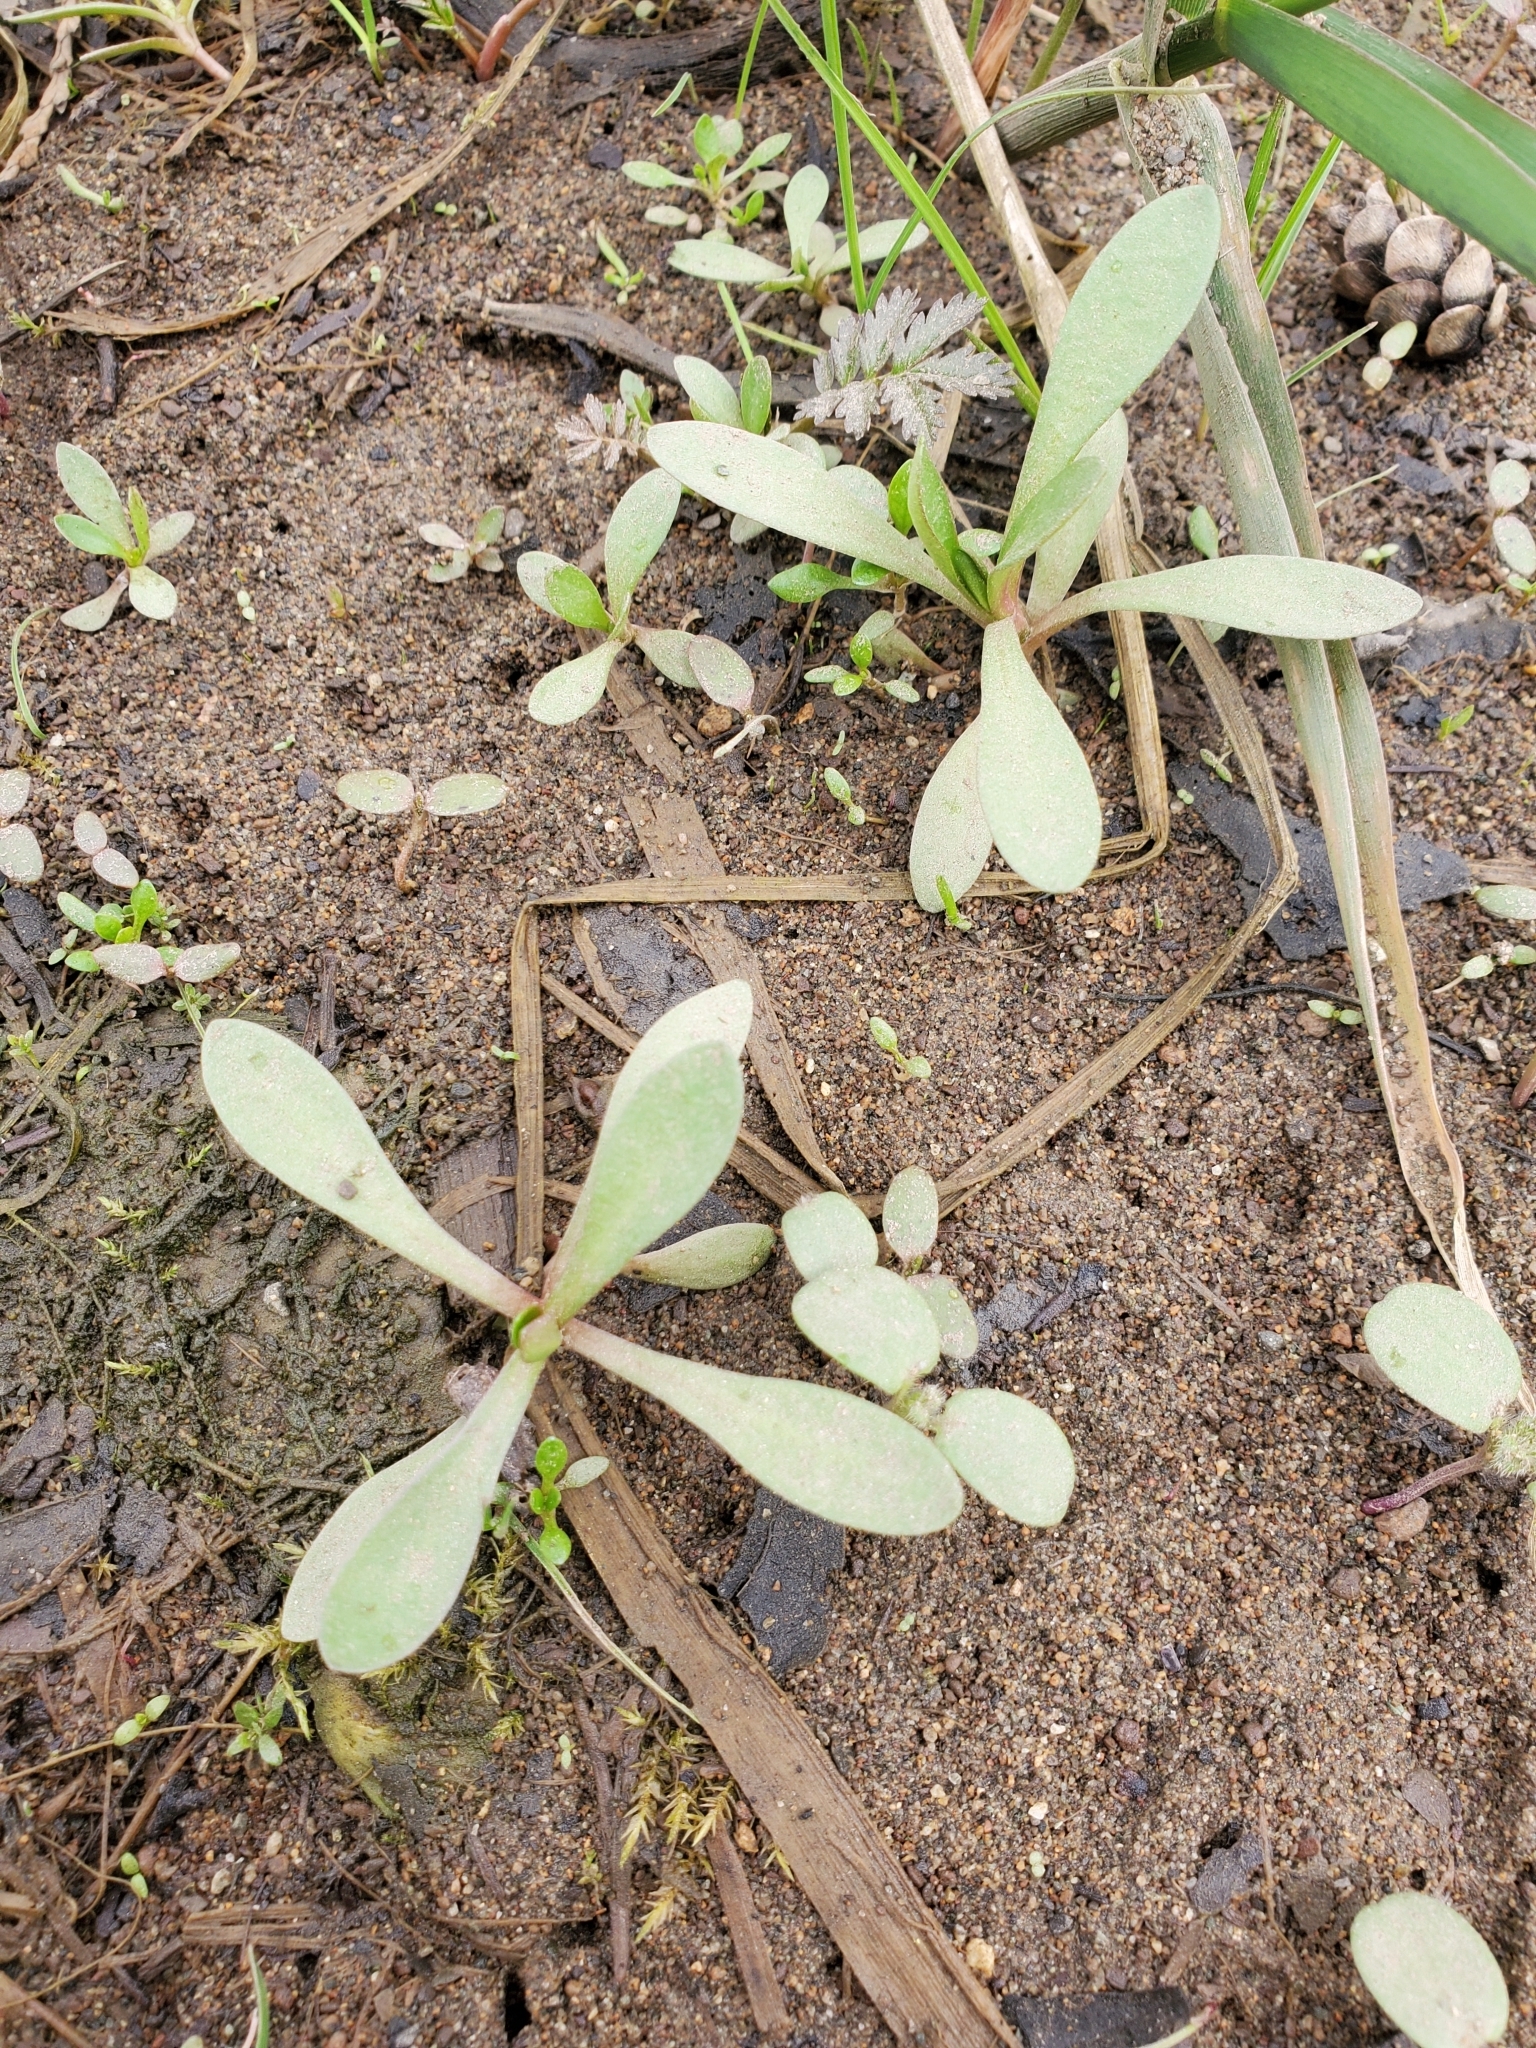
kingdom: Plantae
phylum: Tracheophyta
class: Magnoliopsida
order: Caryophyllales
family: Montiaceae
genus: Montia
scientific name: Montia chamissoi
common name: Chamisso's candyflower
